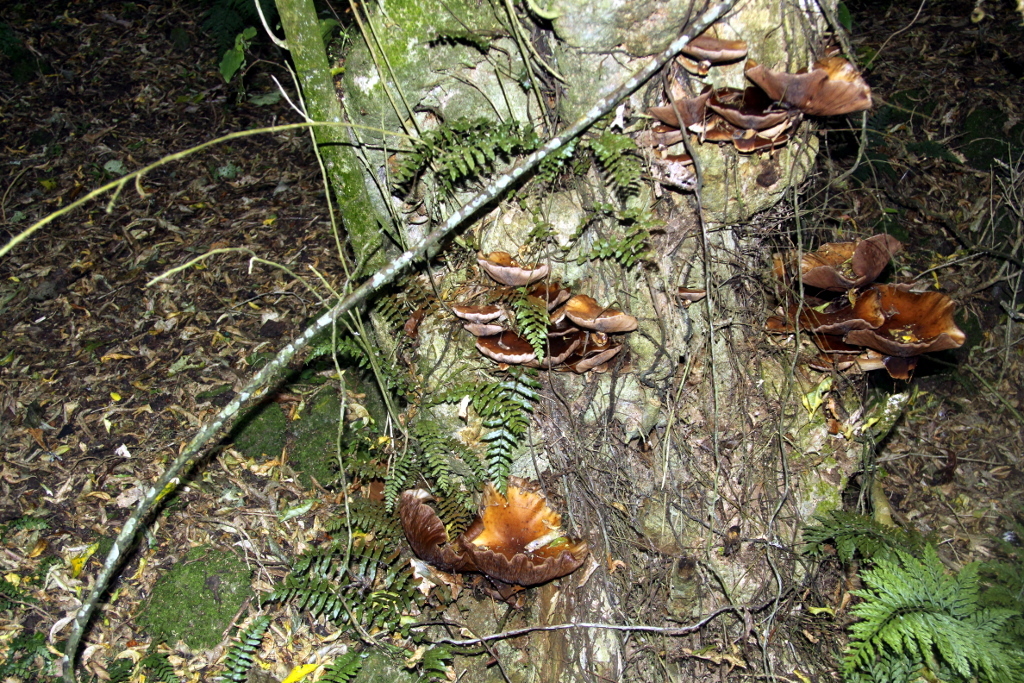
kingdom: Fungi
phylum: Basidiomycota
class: Agaricomycetes
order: Agaricales
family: Tubariaceae
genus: Cyclocybe
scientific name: Cyclocybe parasitica
